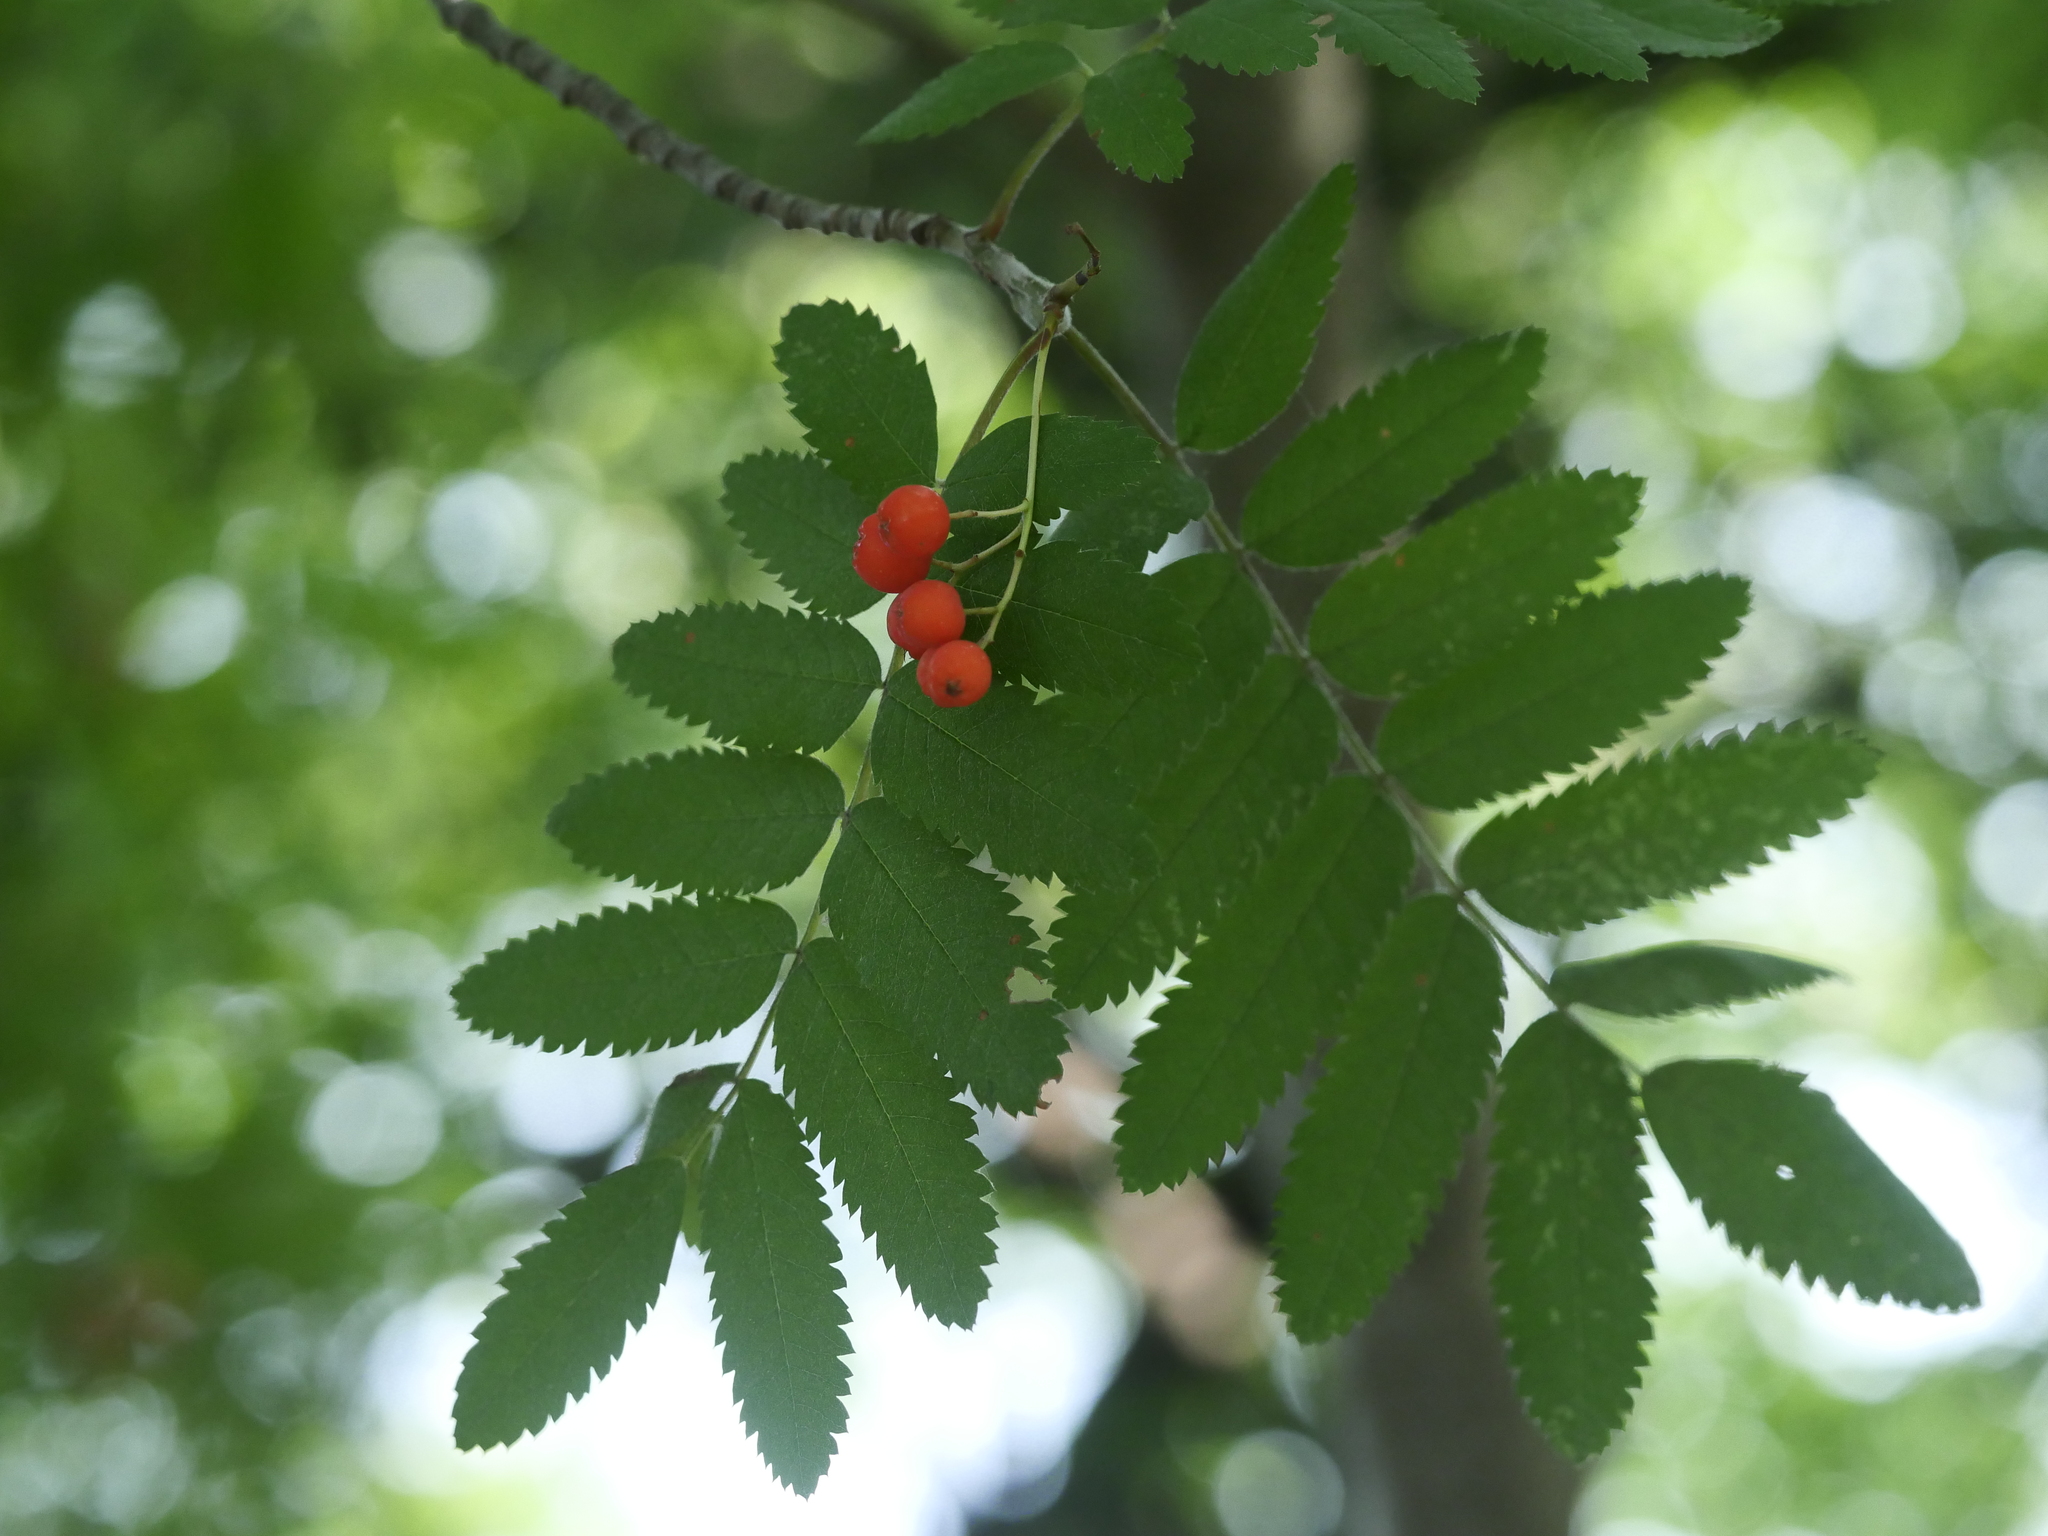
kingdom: Plantae
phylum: Tracheophyta
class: Magnoliopsida
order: Rosales
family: Rosaceae
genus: Sorbus
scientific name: Sorbus aucuparia
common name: Rowan
